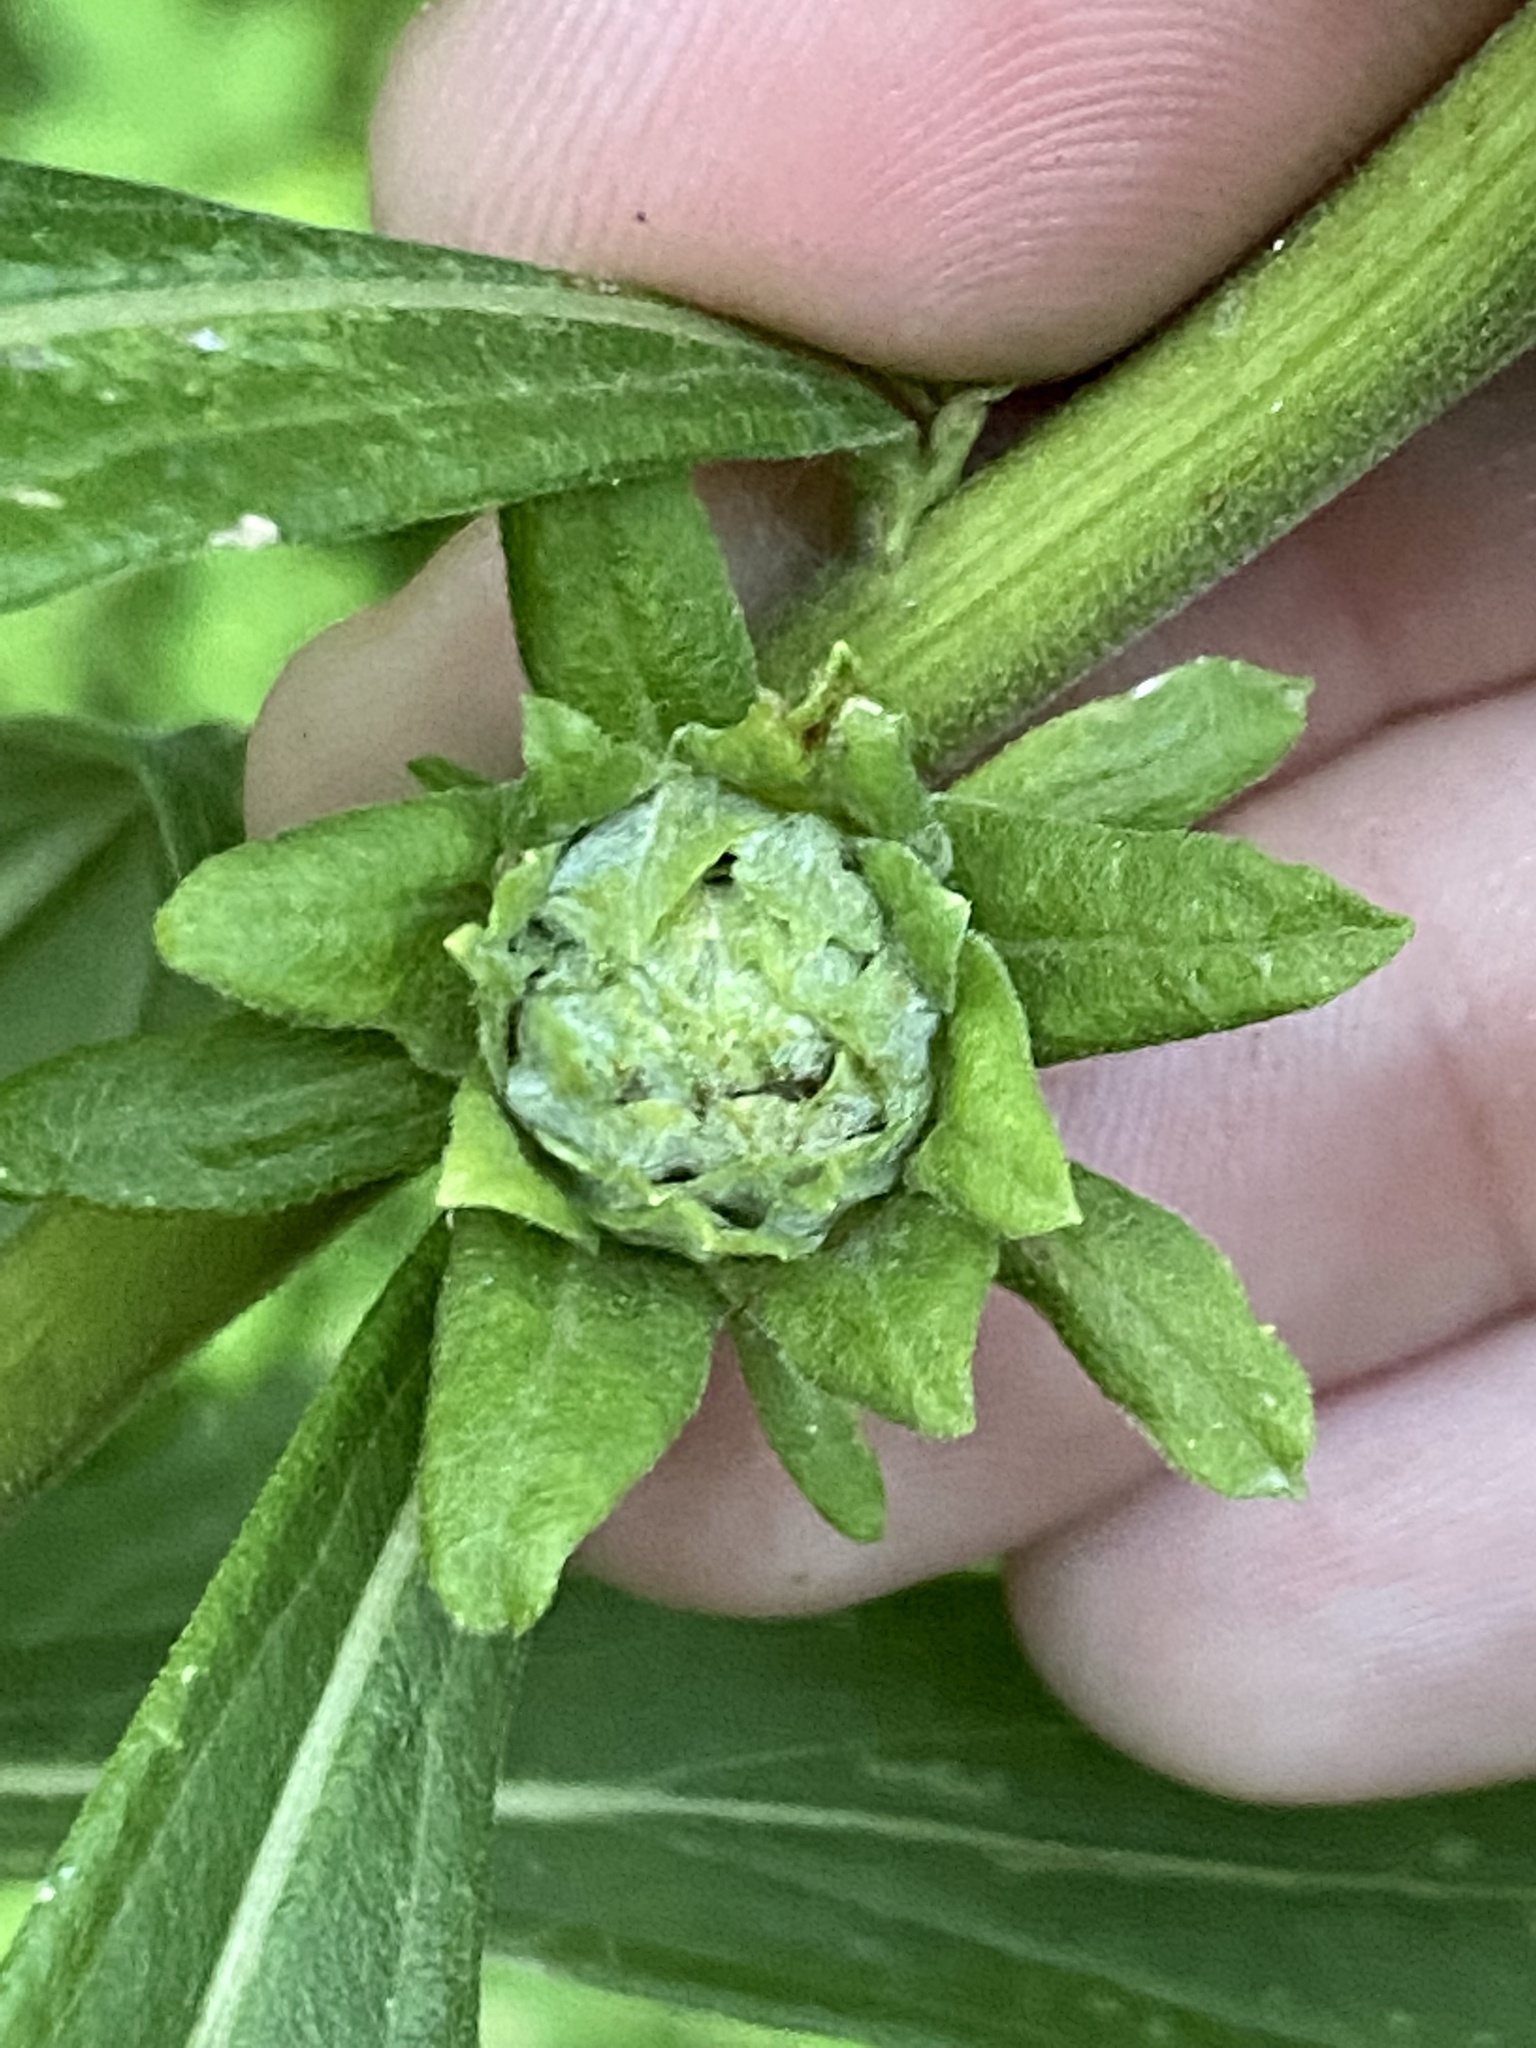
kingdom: Animalia
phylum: Arthropoda
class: Insecta
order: Diptera
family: Tephritidae
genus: Procecidochares
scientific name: Procecidochares atra
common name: Goldenrod brussels sprout gall fly
